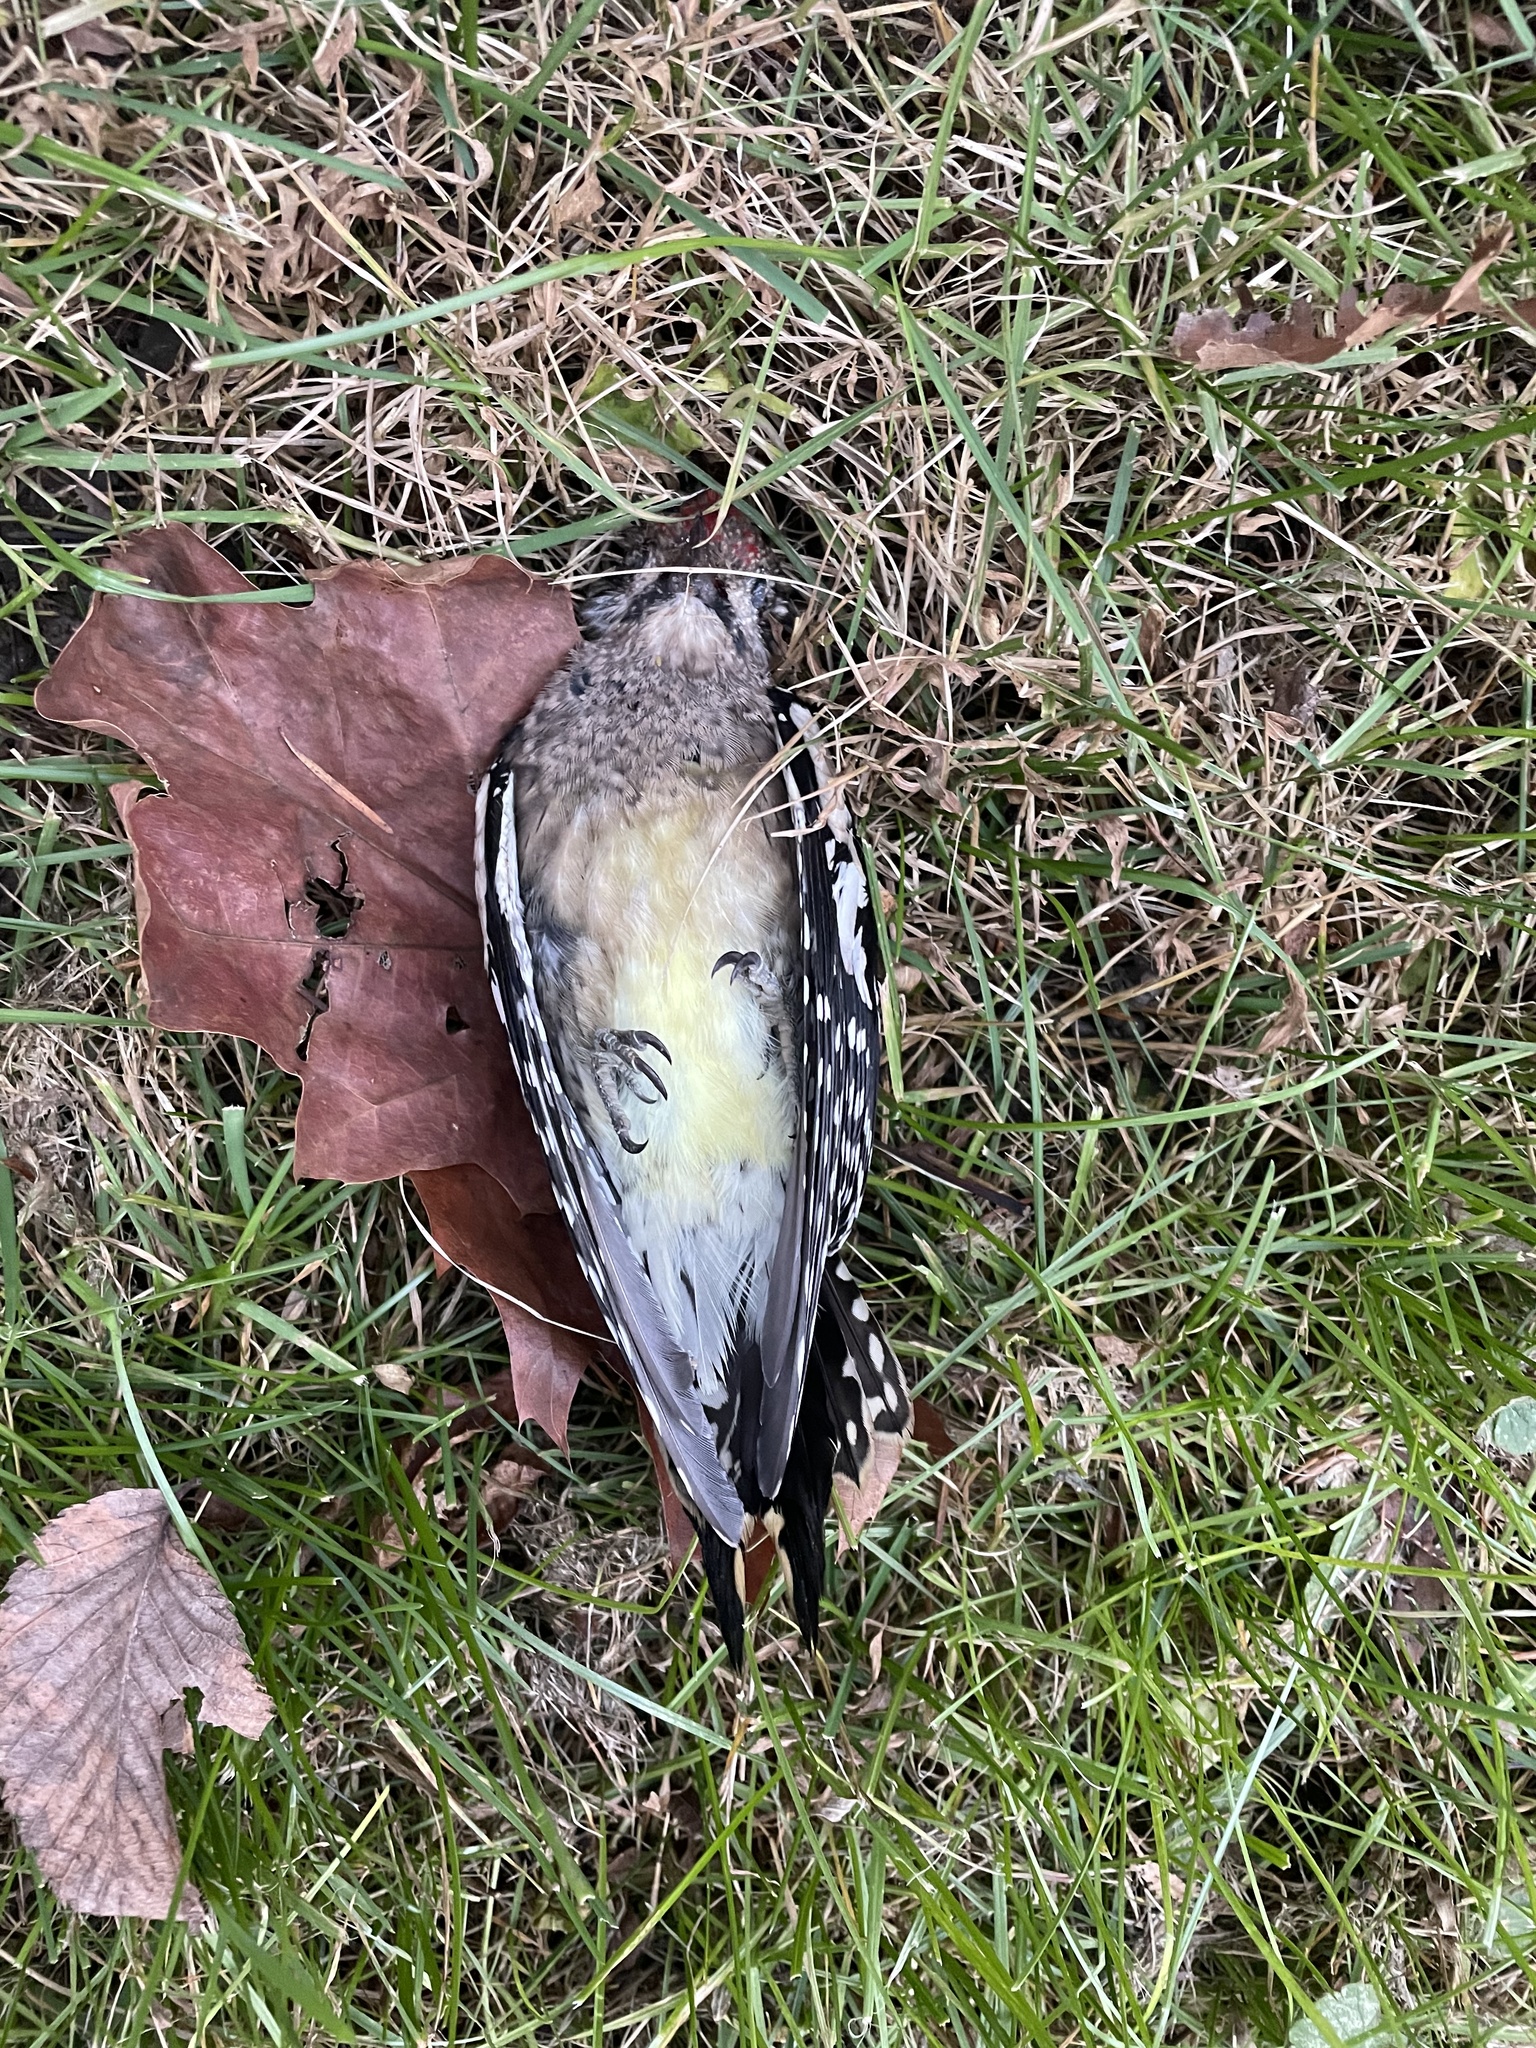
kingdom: Animalia
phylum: Chordata
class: Aves
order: Piciformes
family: Picidae
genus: Sphyrapicus
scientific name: Sphyrapicus varius
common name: Yellow-bellied sapsucker
